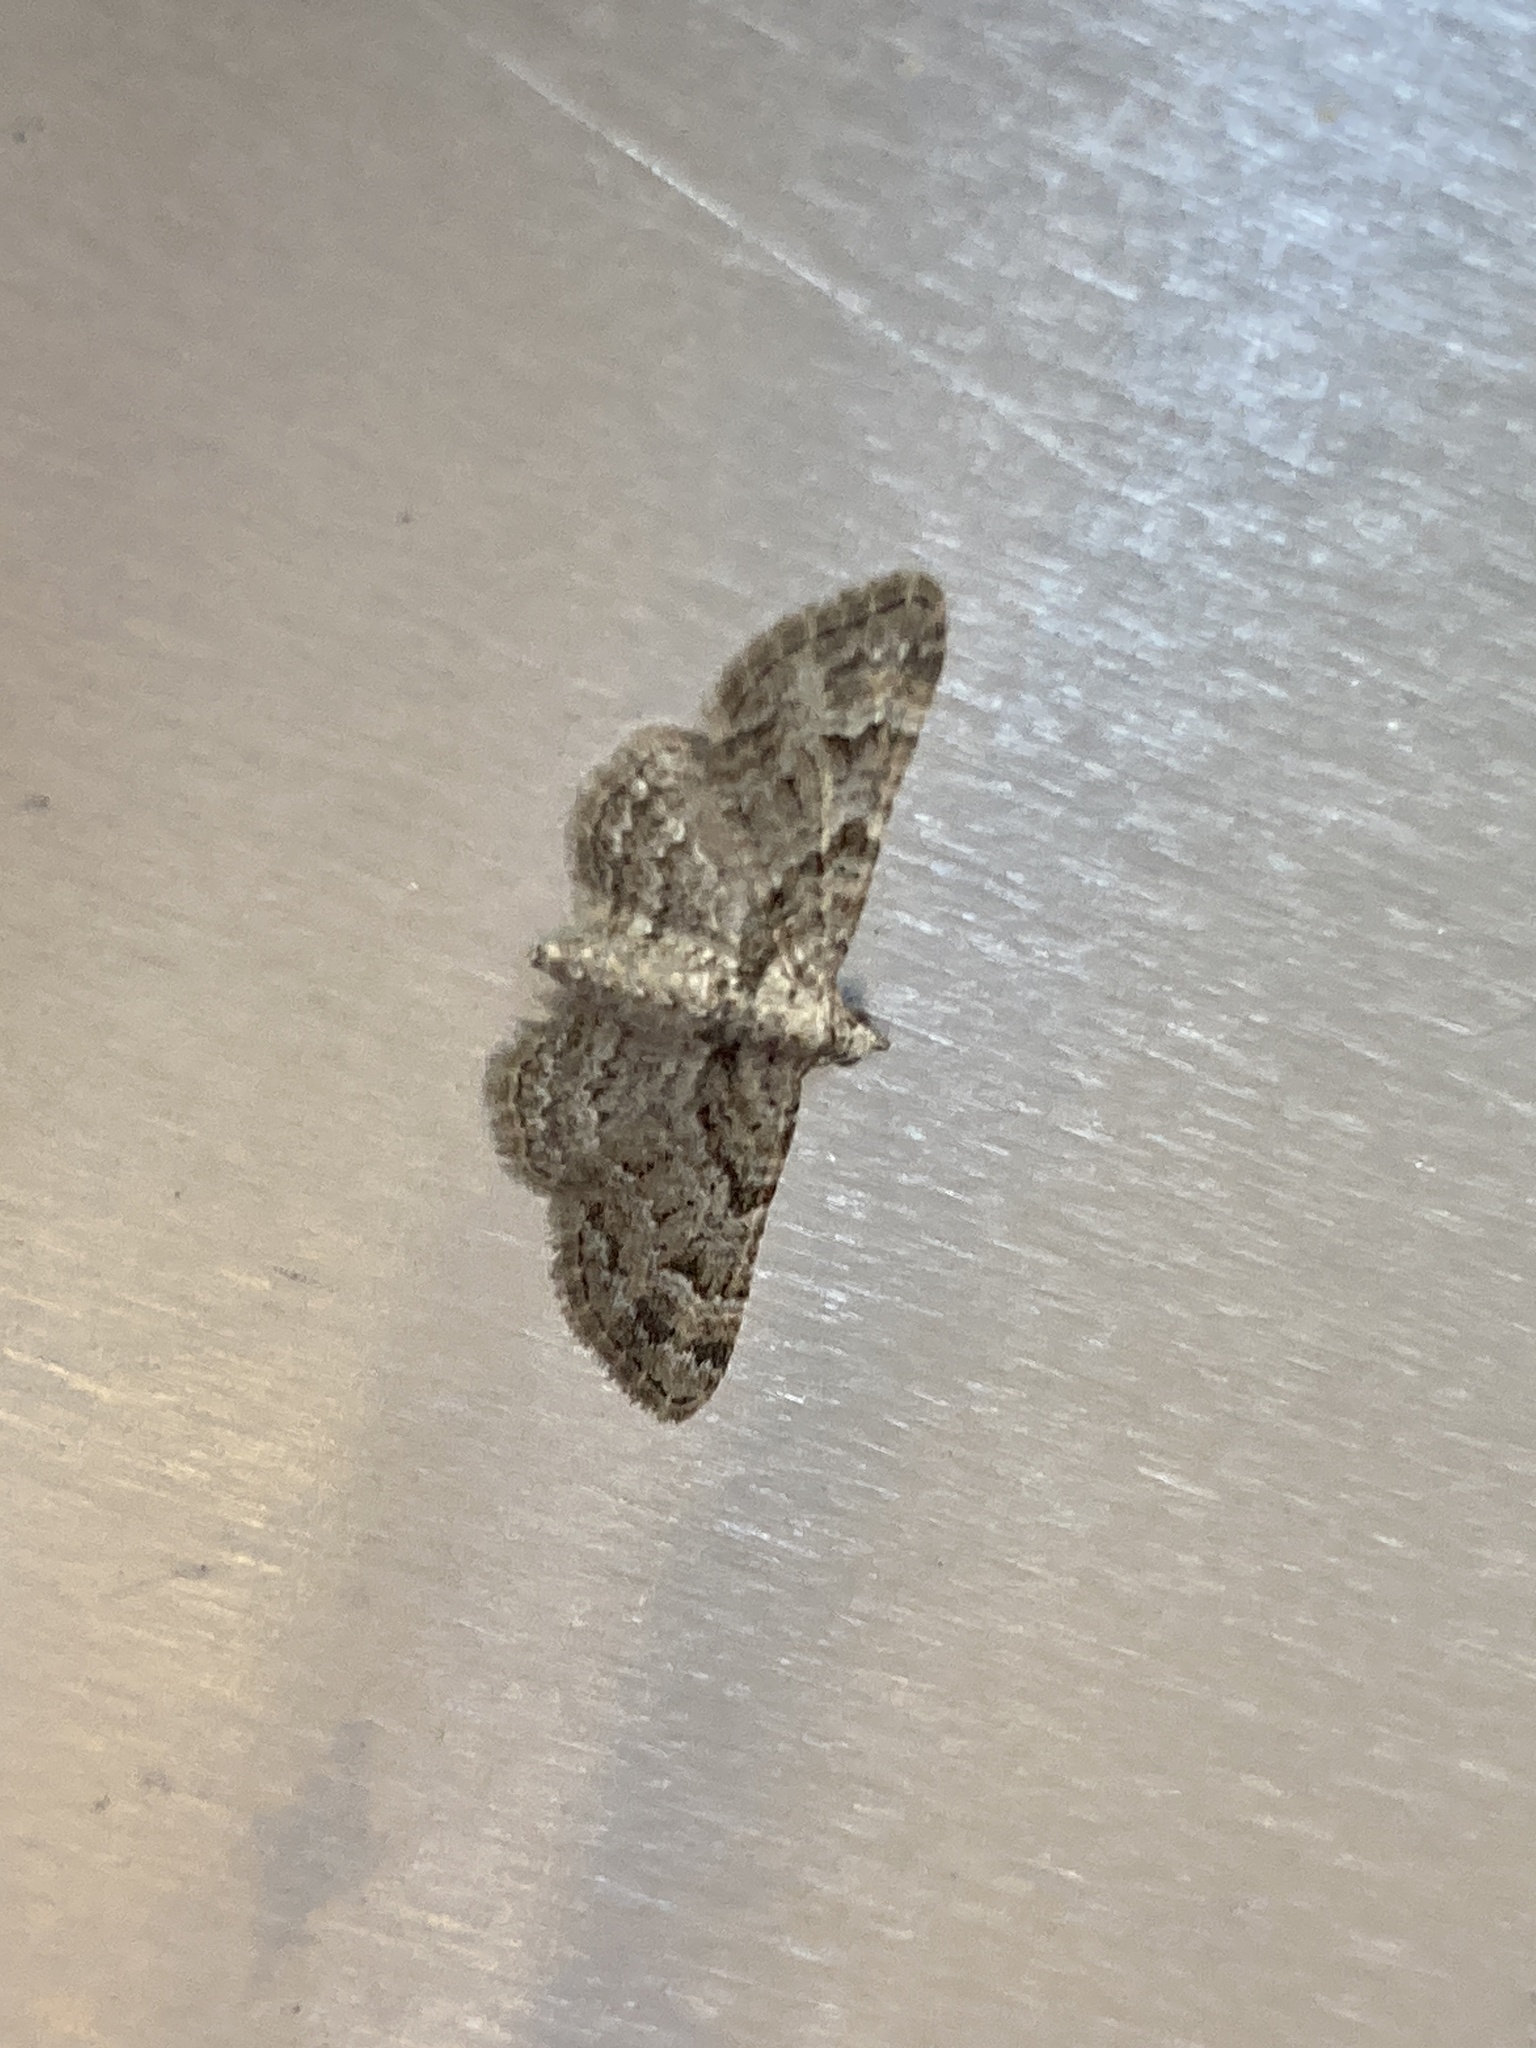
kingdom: Animalia
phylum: Arthropoda
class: Insecta
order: Lepidoptera
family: Geometridae
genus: Gymnoscelis
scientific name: Gymnoscelis rufifasciata
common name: Double-striped pug
